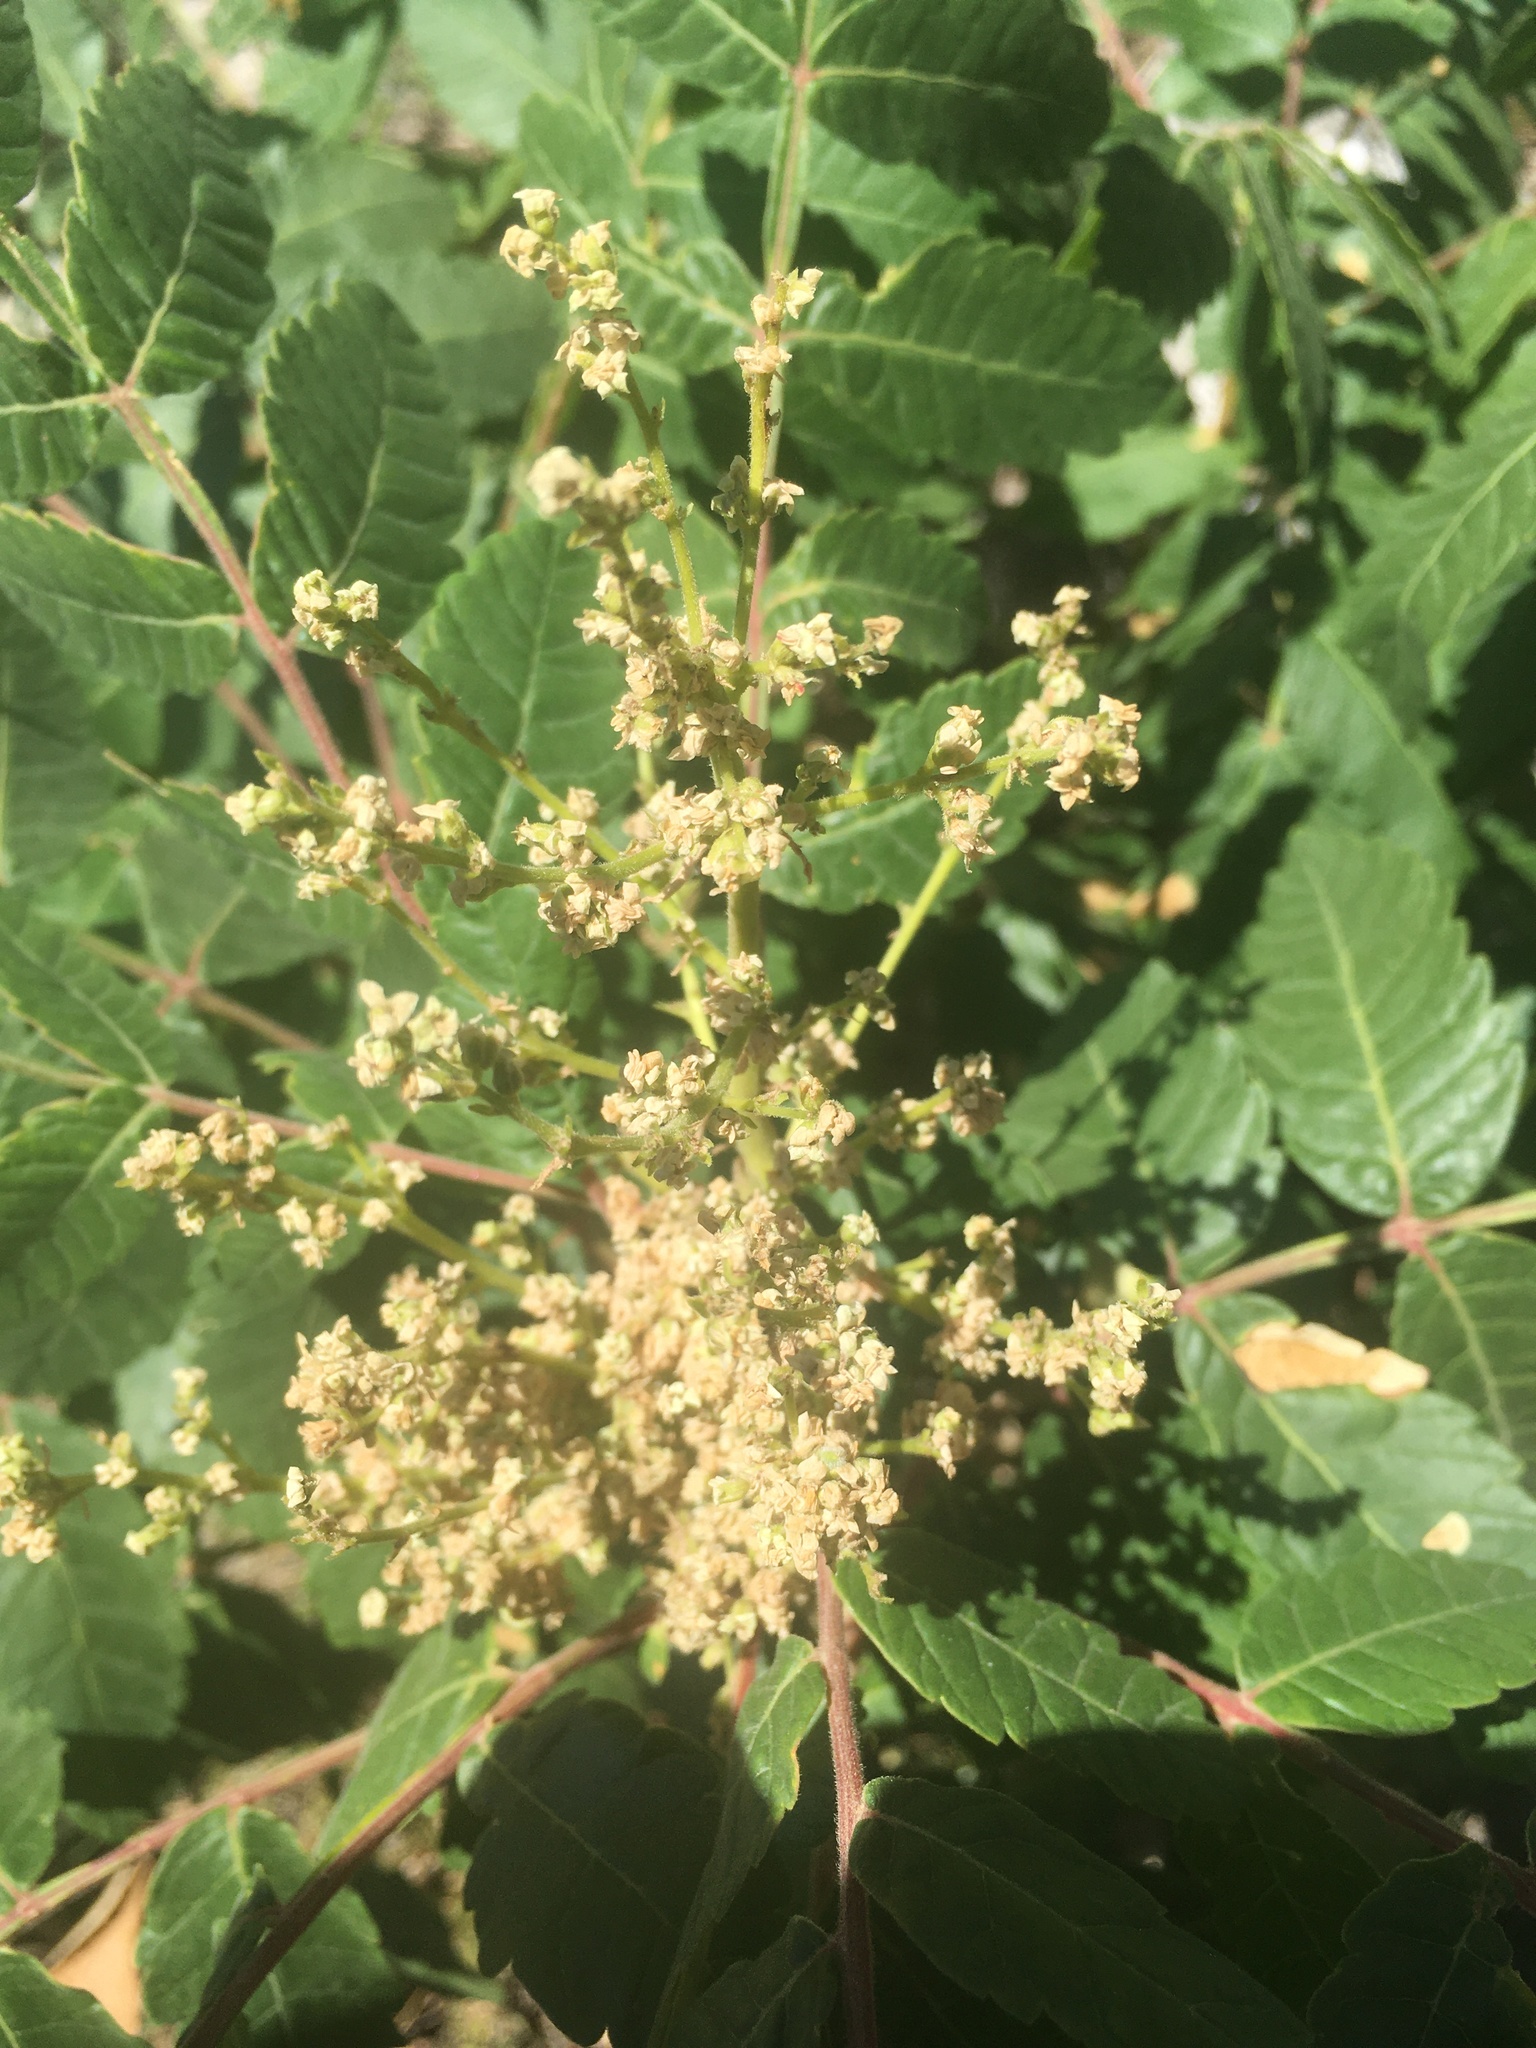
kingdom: Plantae
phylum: Tracheophyta
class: Magnoliopsida
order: Sapindales
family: Anacardiaceae
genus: Rhus
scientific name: Rhus coriaria
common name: Tanner's sumach
